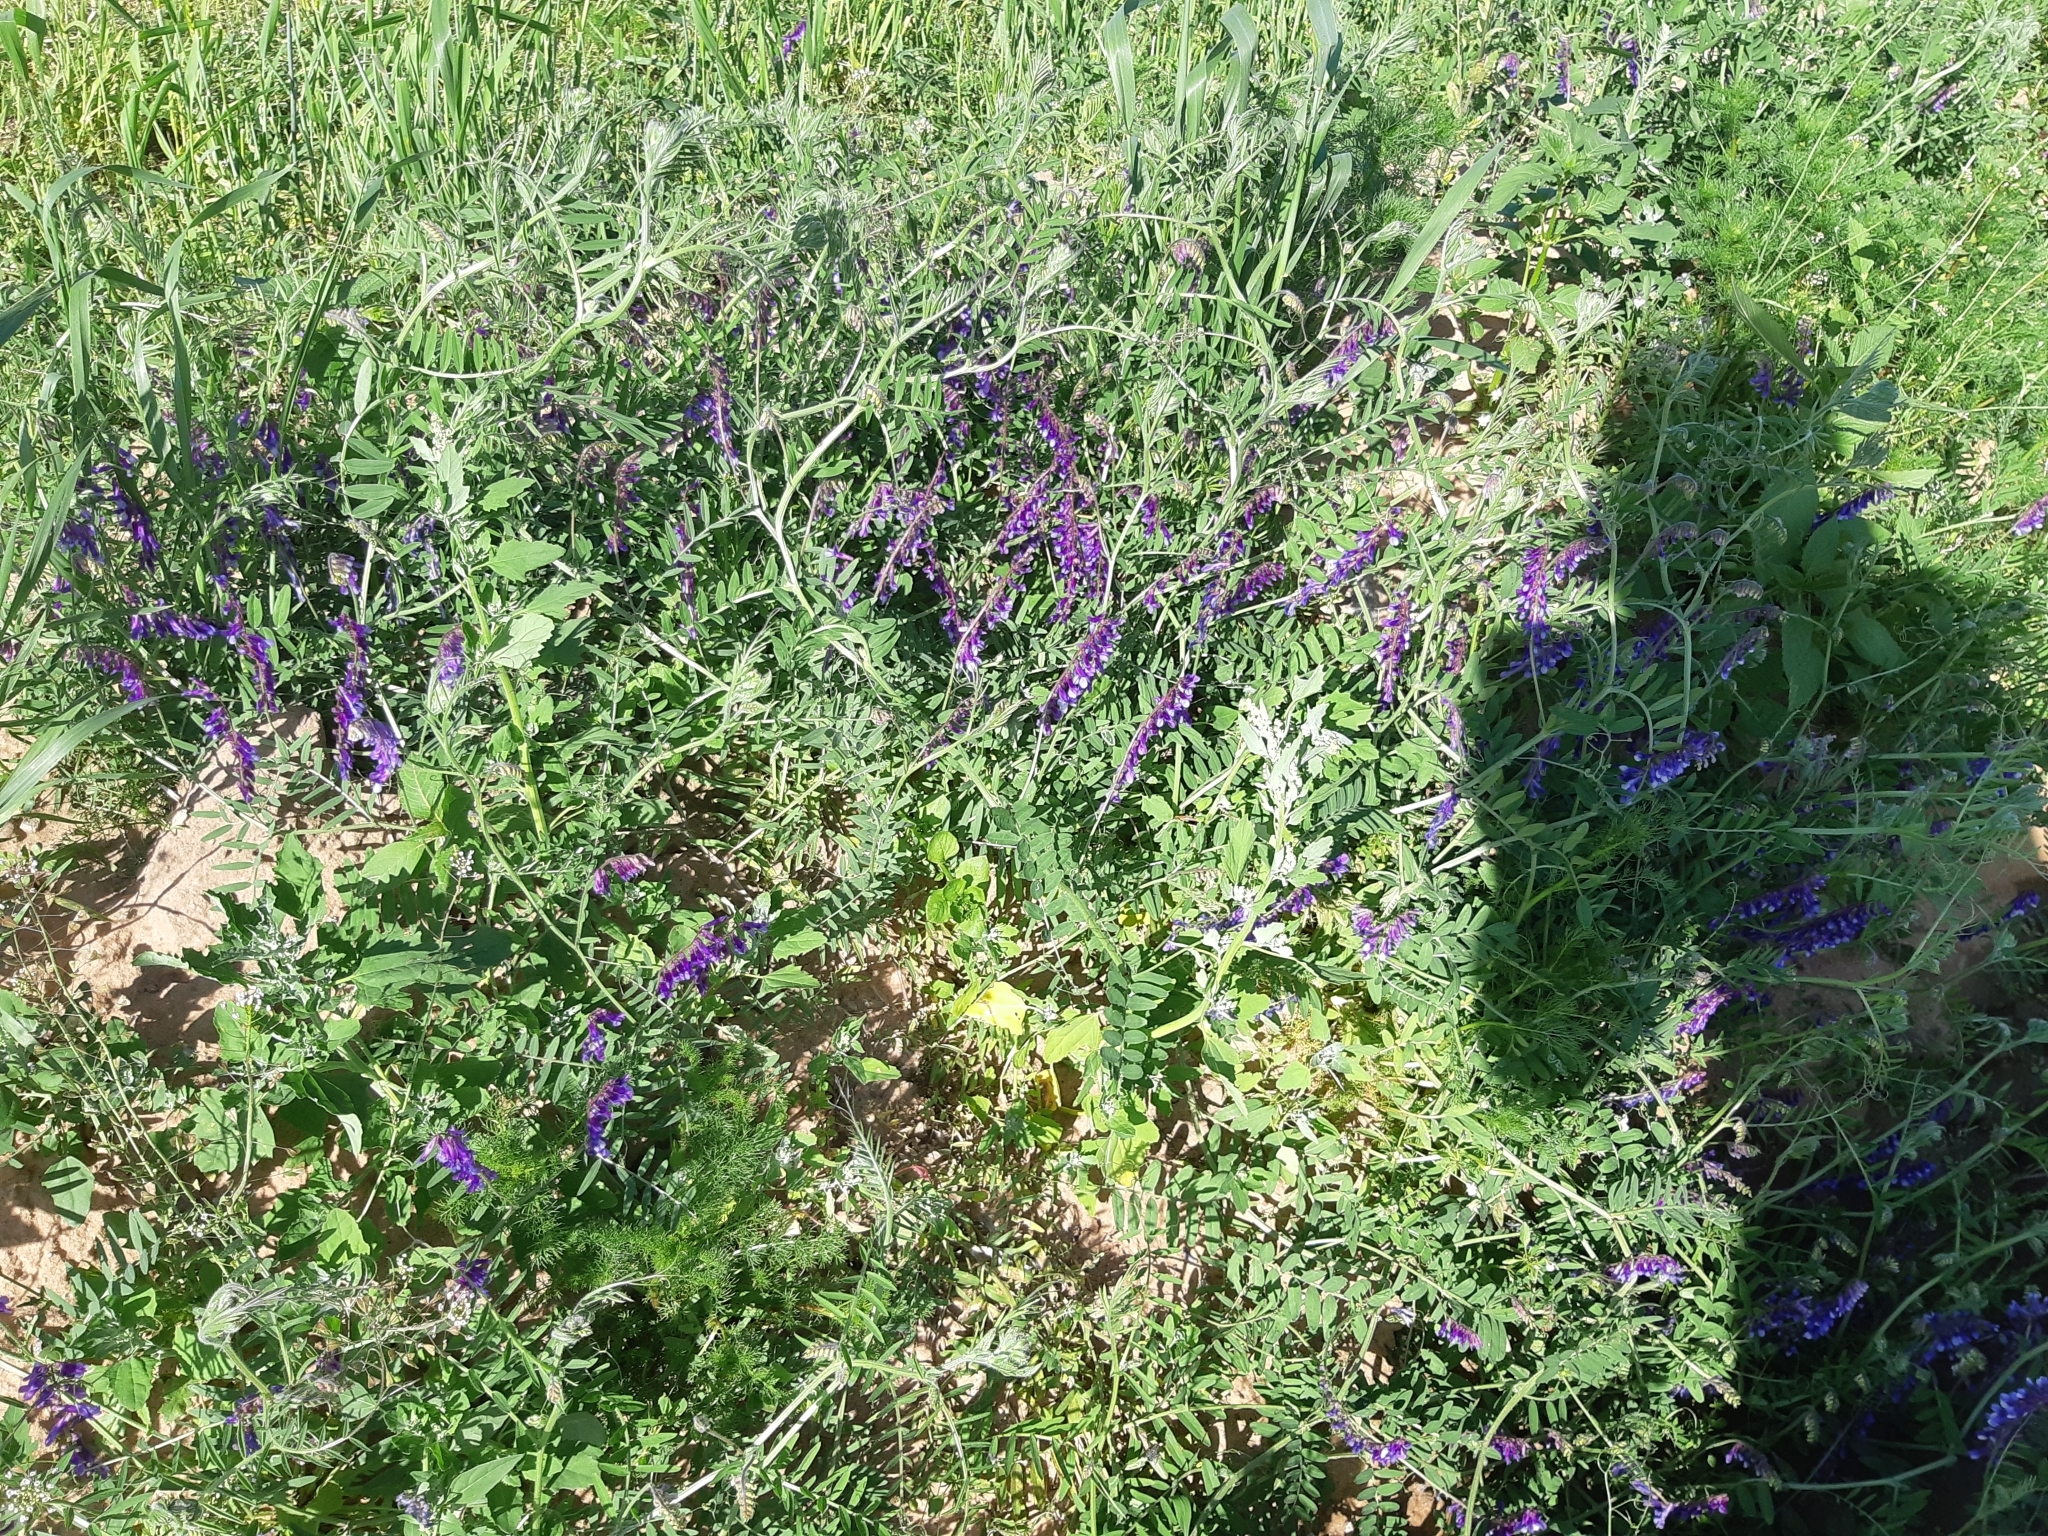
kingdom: Plantae
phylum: Tracheophyta
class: Magnoliopsida
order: Fabales
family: Fabaceae
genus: Vicia
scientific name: Vicia villosa
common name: Fodder vetch
